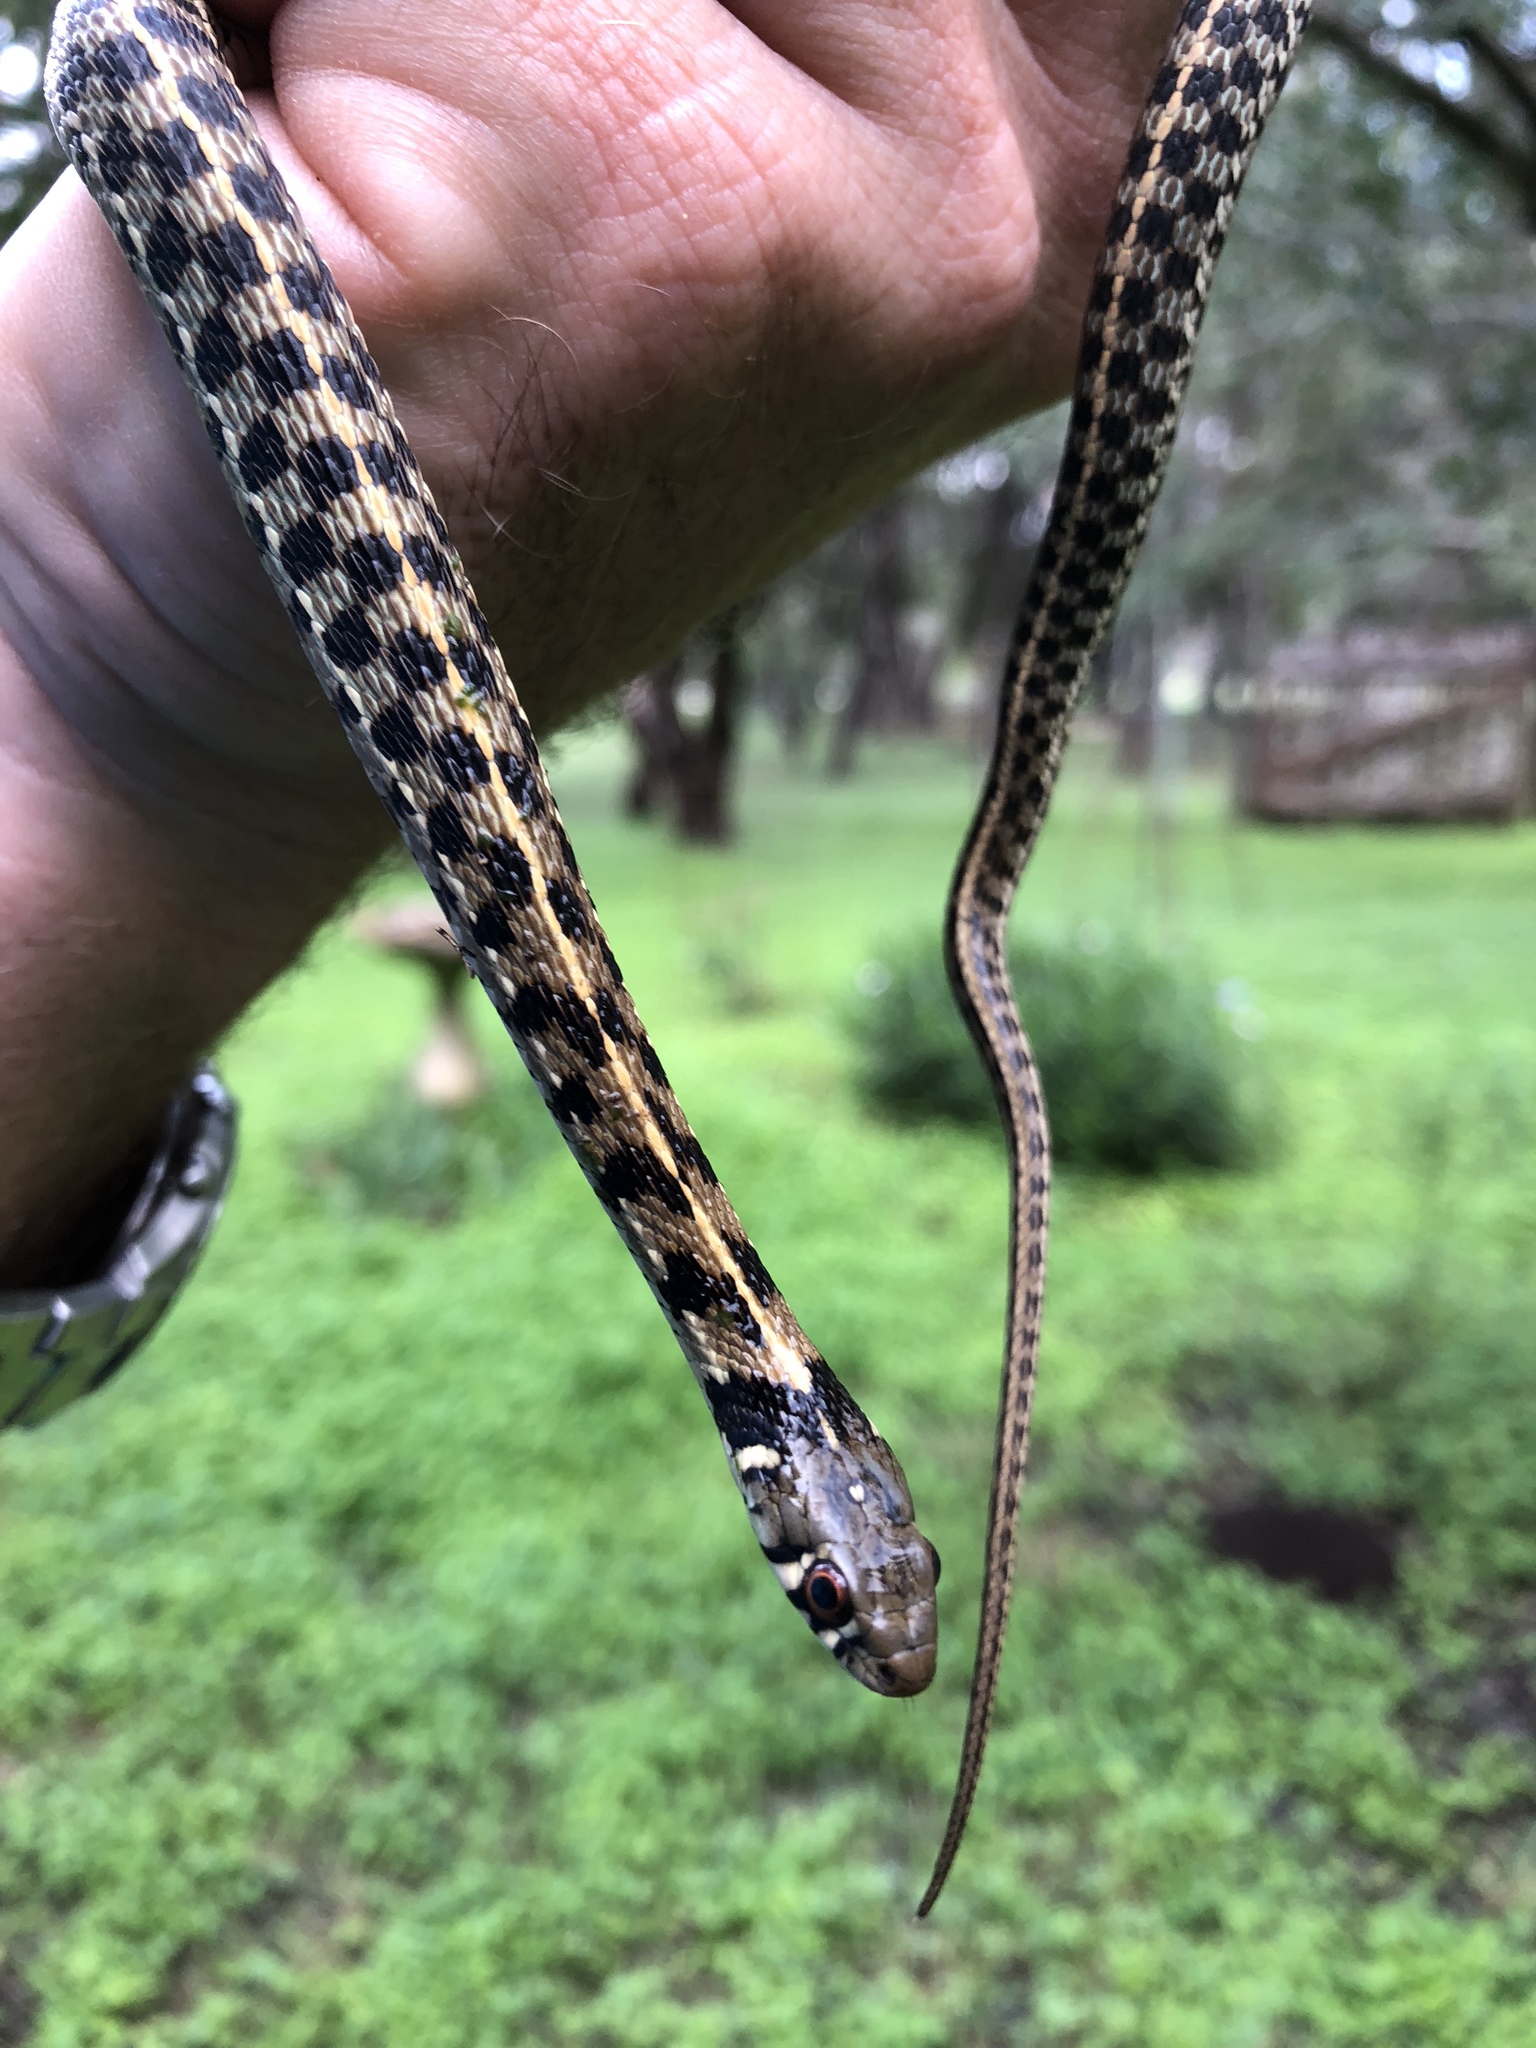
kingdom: Animalia
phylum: Chordata
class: Squamata
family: Colubridae
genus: Thamnophis
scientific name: Thamnophis marcianus
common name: Checkered garter snake
